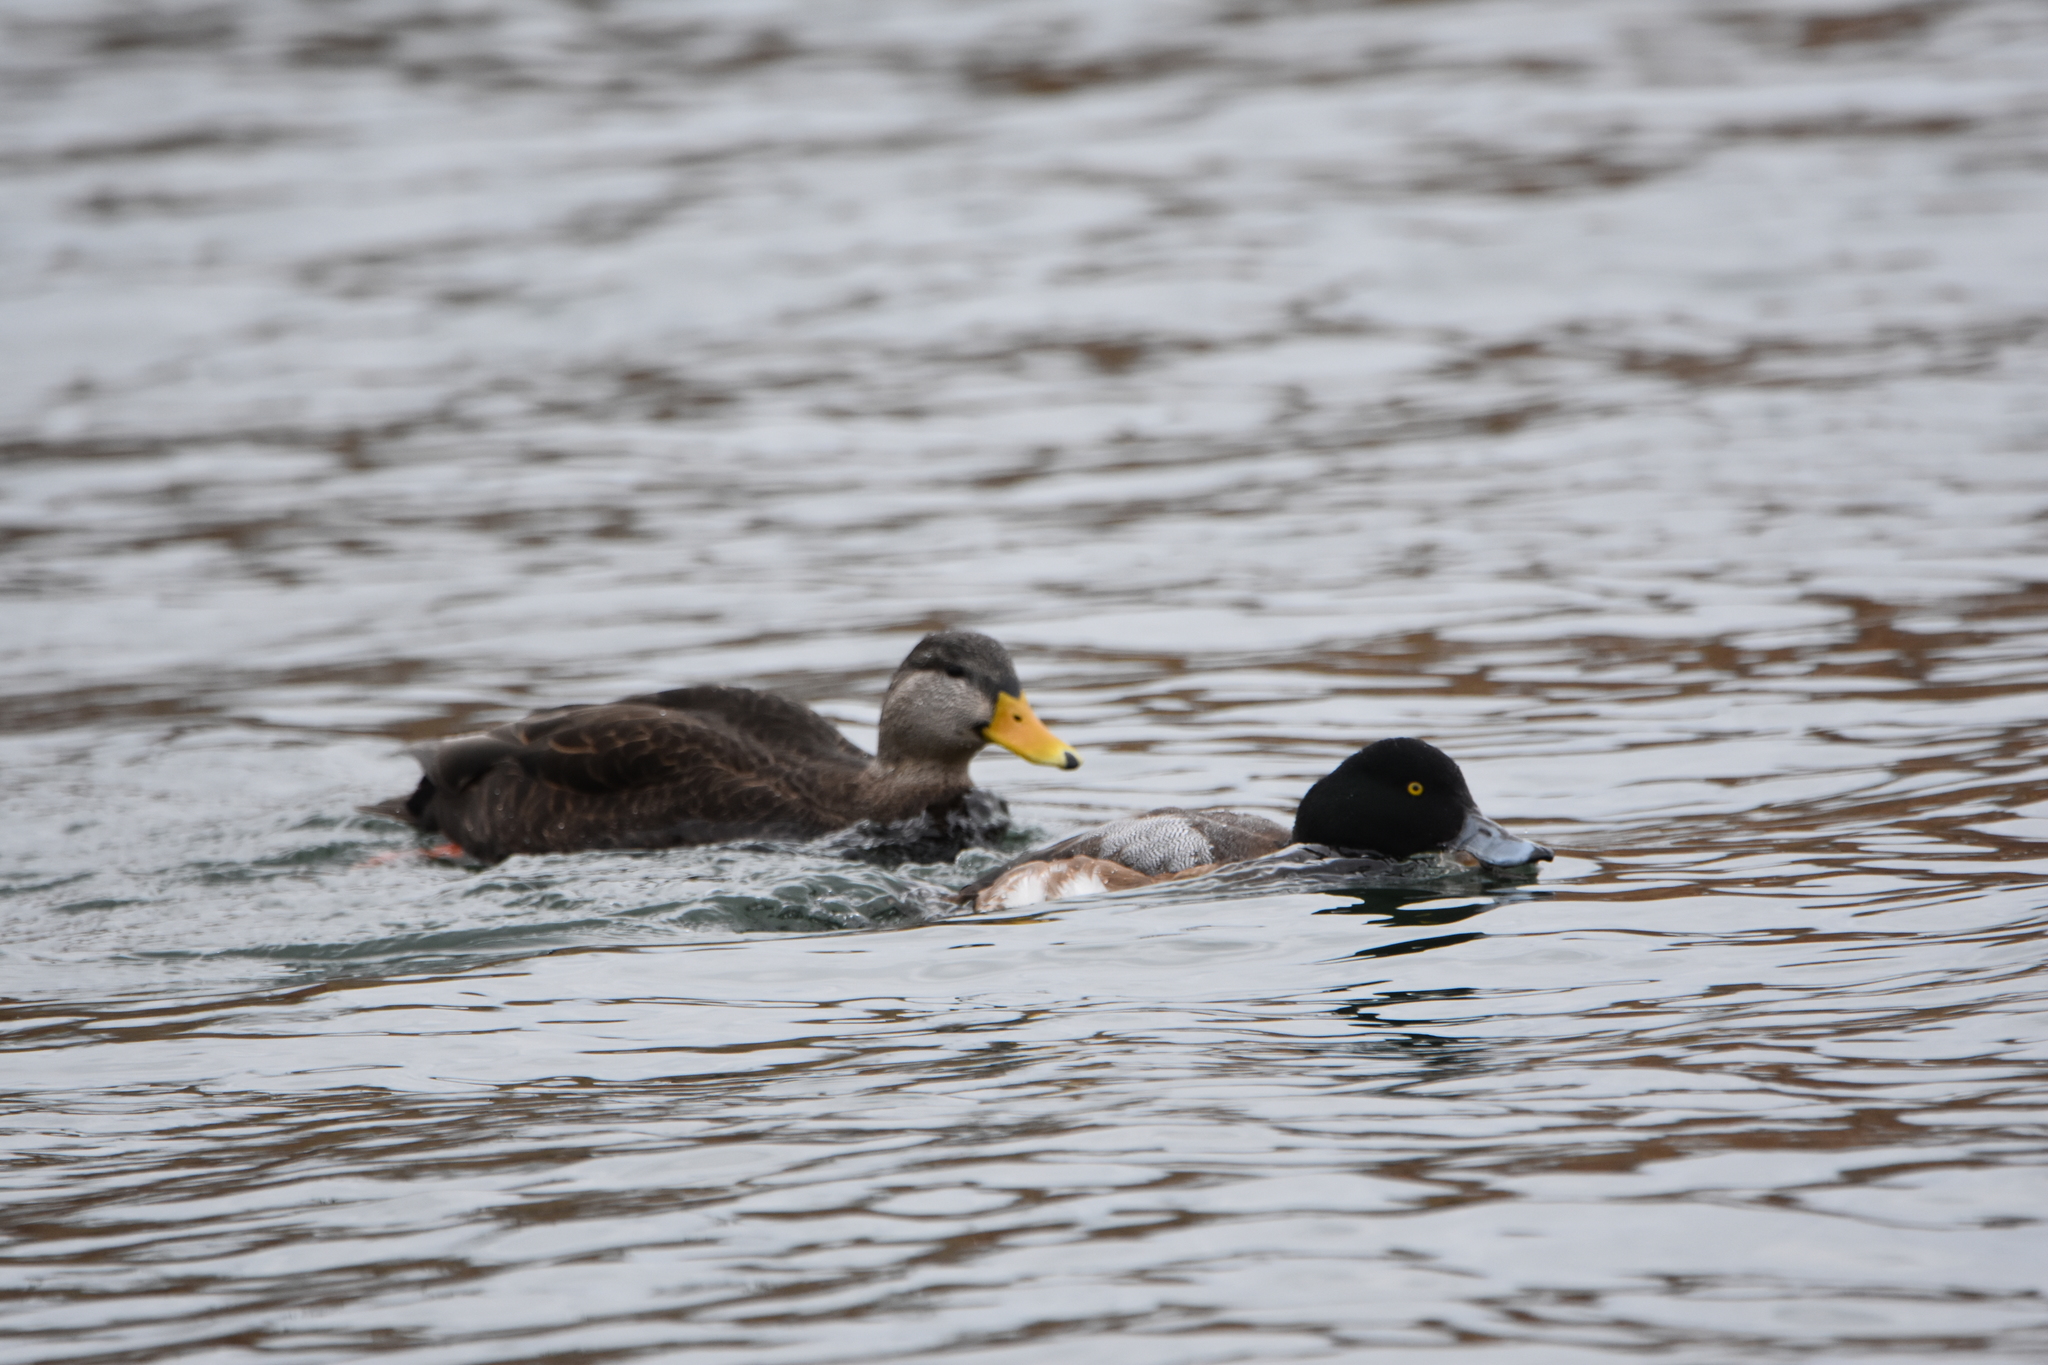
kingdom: Animalia
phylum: Chordata
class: Aves
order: Anseriformes
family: Anatidae
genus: Anas
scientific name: Anas rubripes
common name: American black duck
